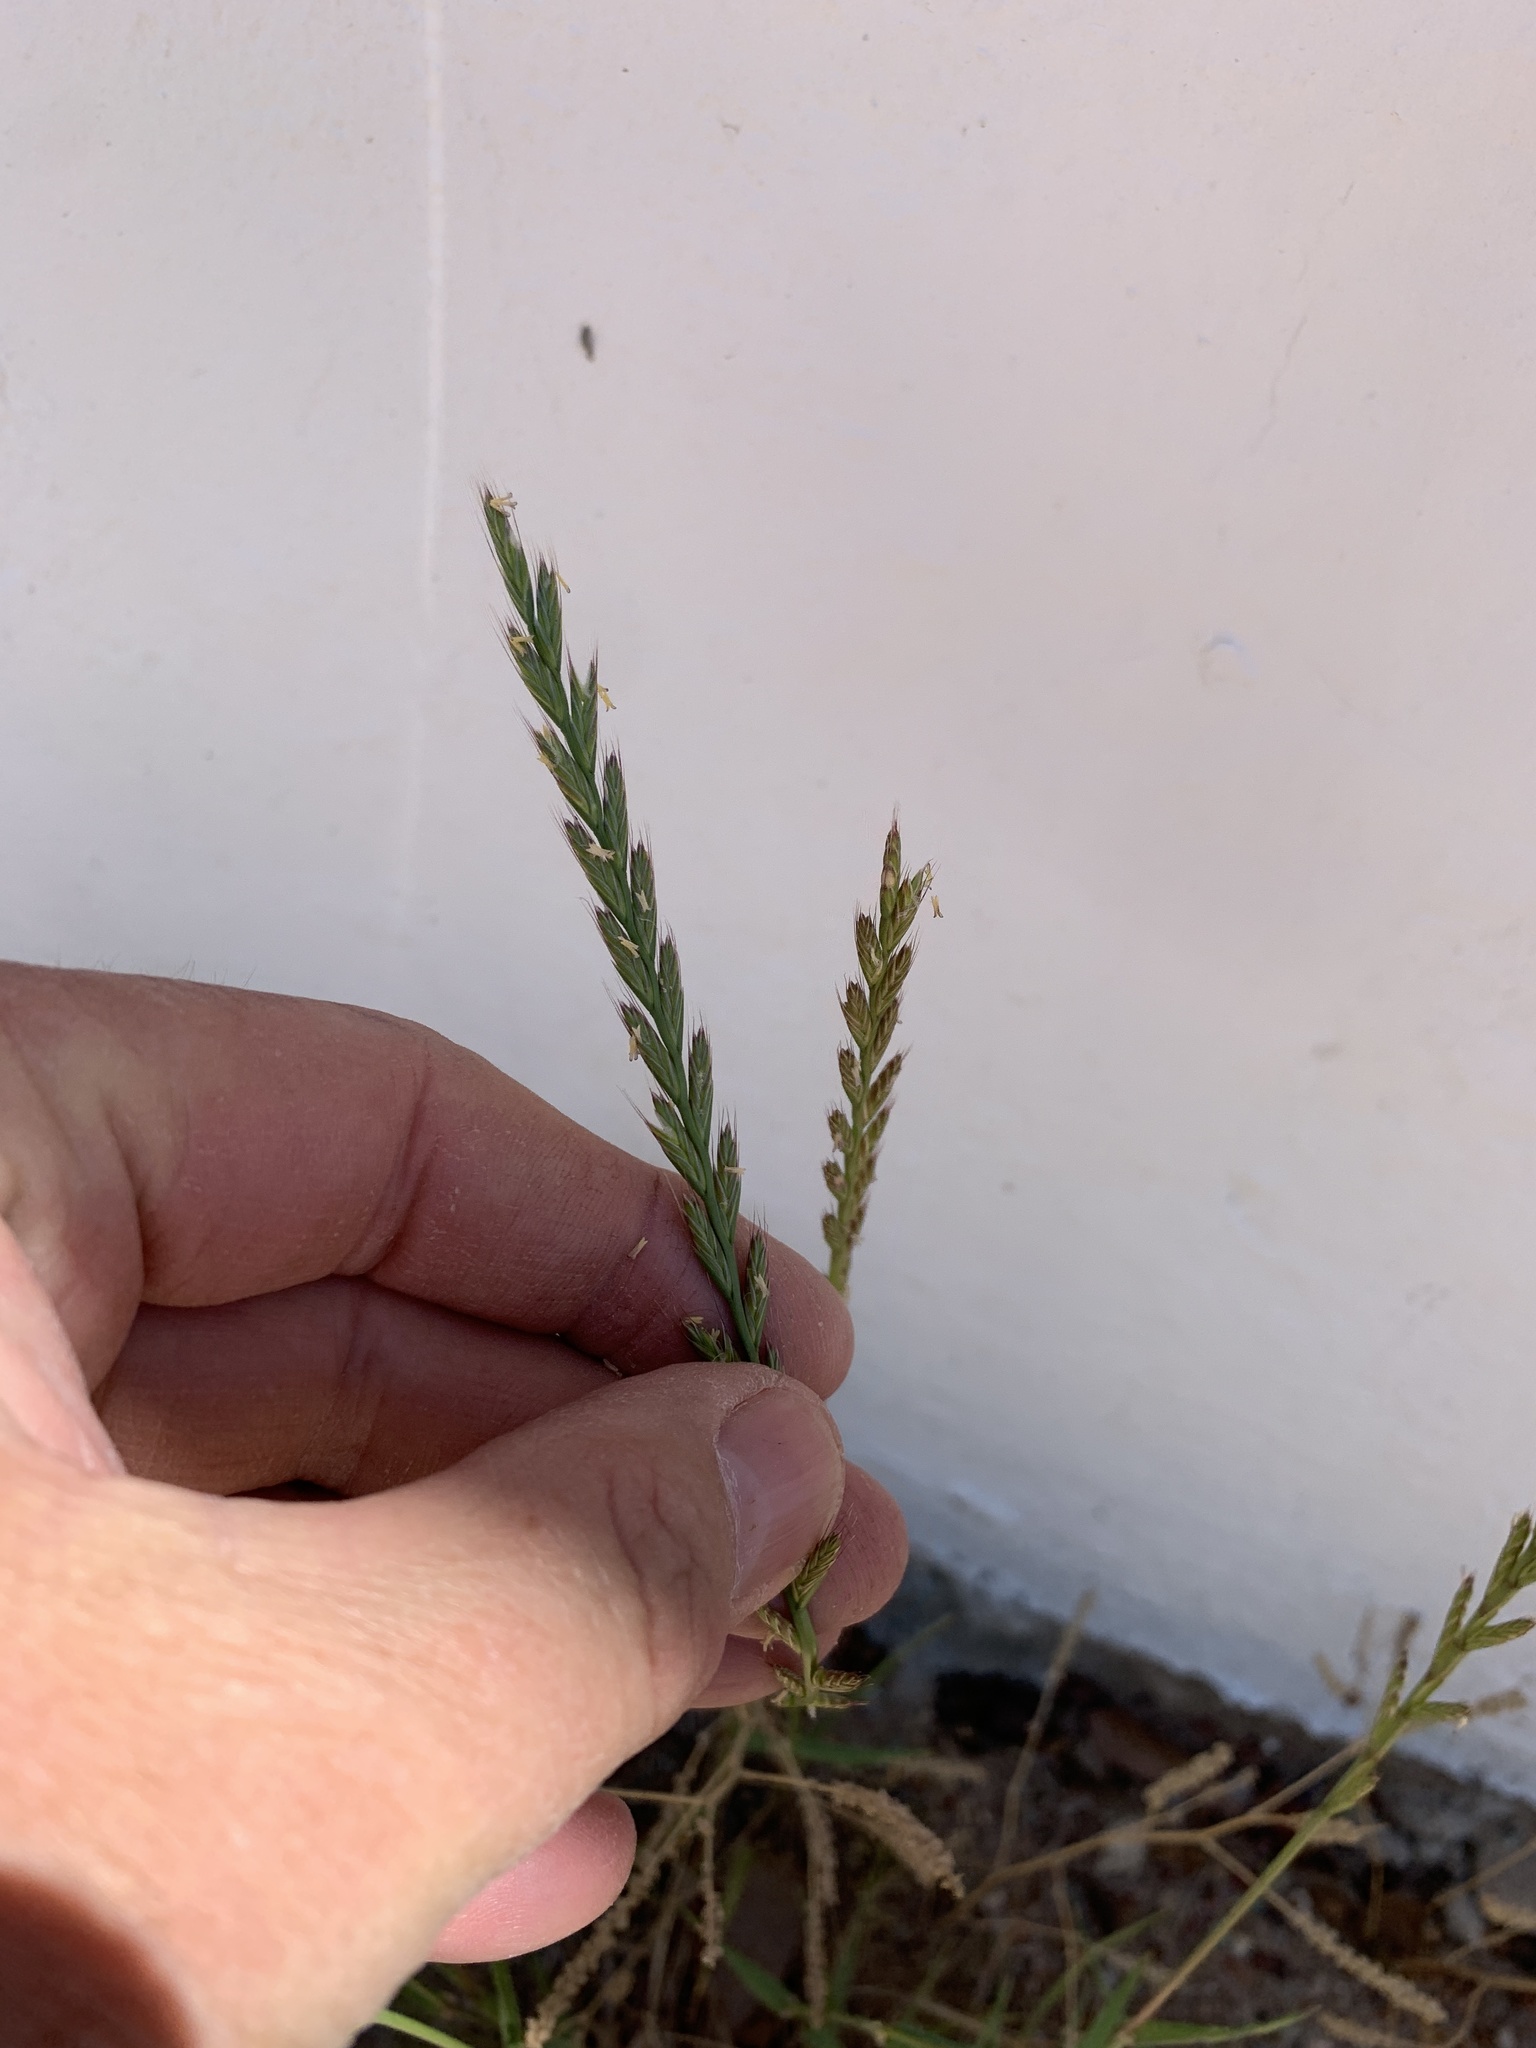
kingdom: Plantae
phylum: Tracheophyta
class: Liliopsida
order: Poales
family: Poaceae
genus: Lolium
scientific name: Lolium
